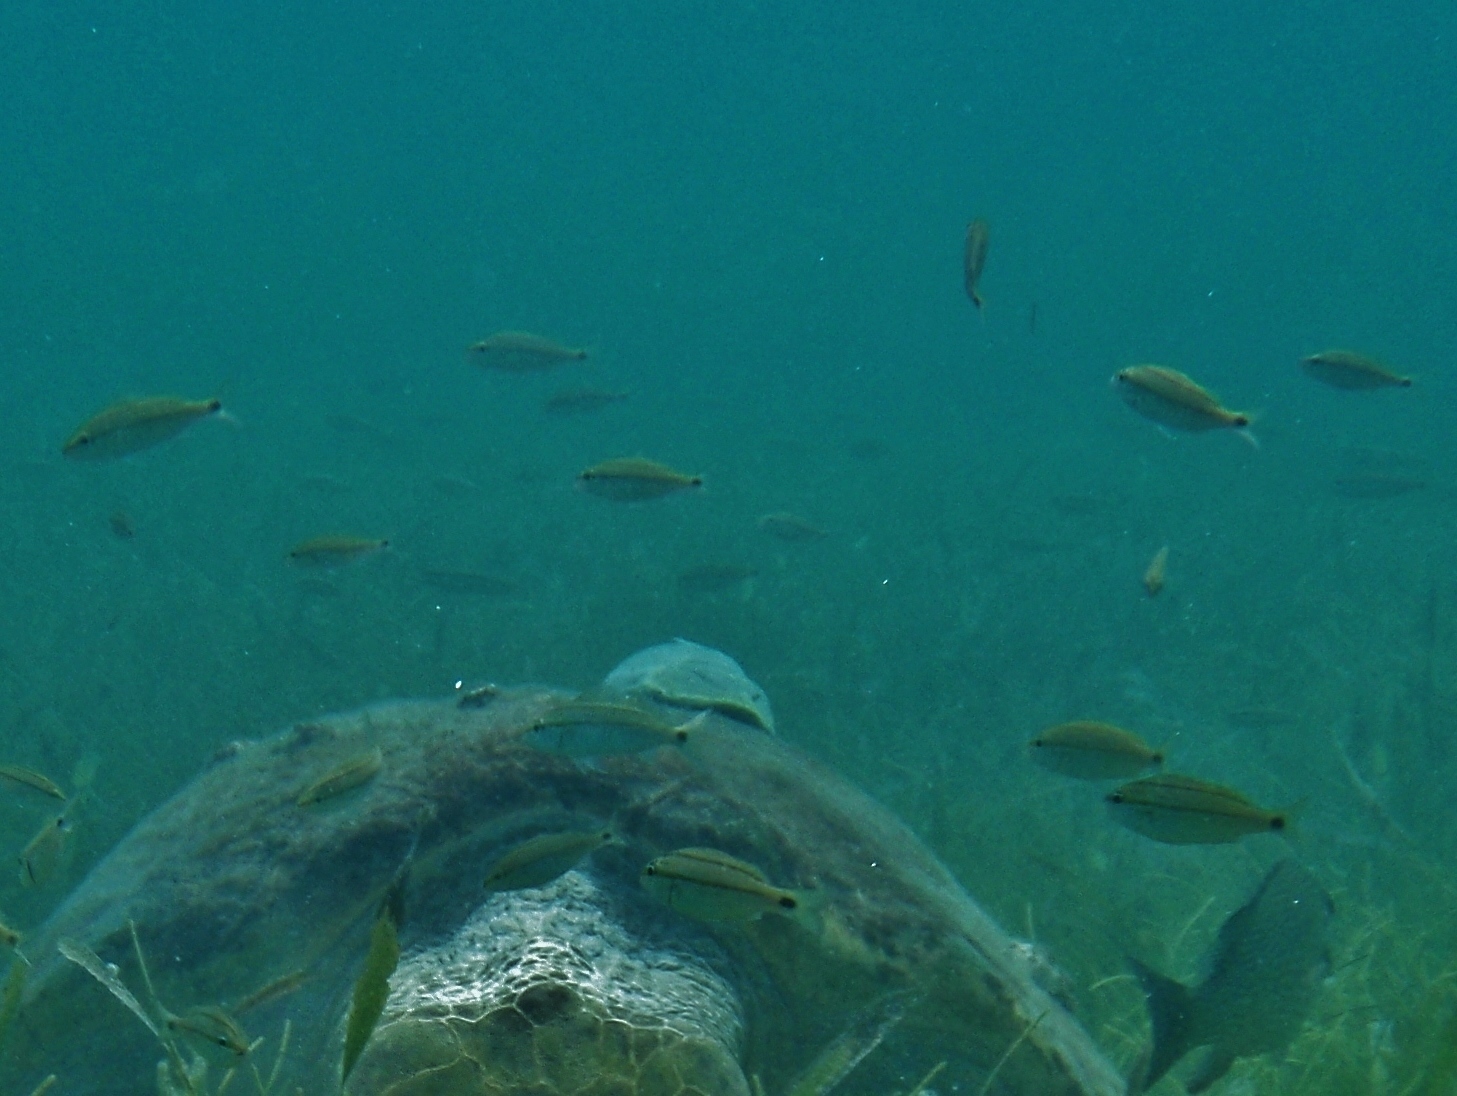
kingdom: Animalia
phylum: Chordata
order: Perciformes
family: Haemulidae
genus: Haemulon
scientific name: Haemulon aurolineatum
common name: Tomtate
